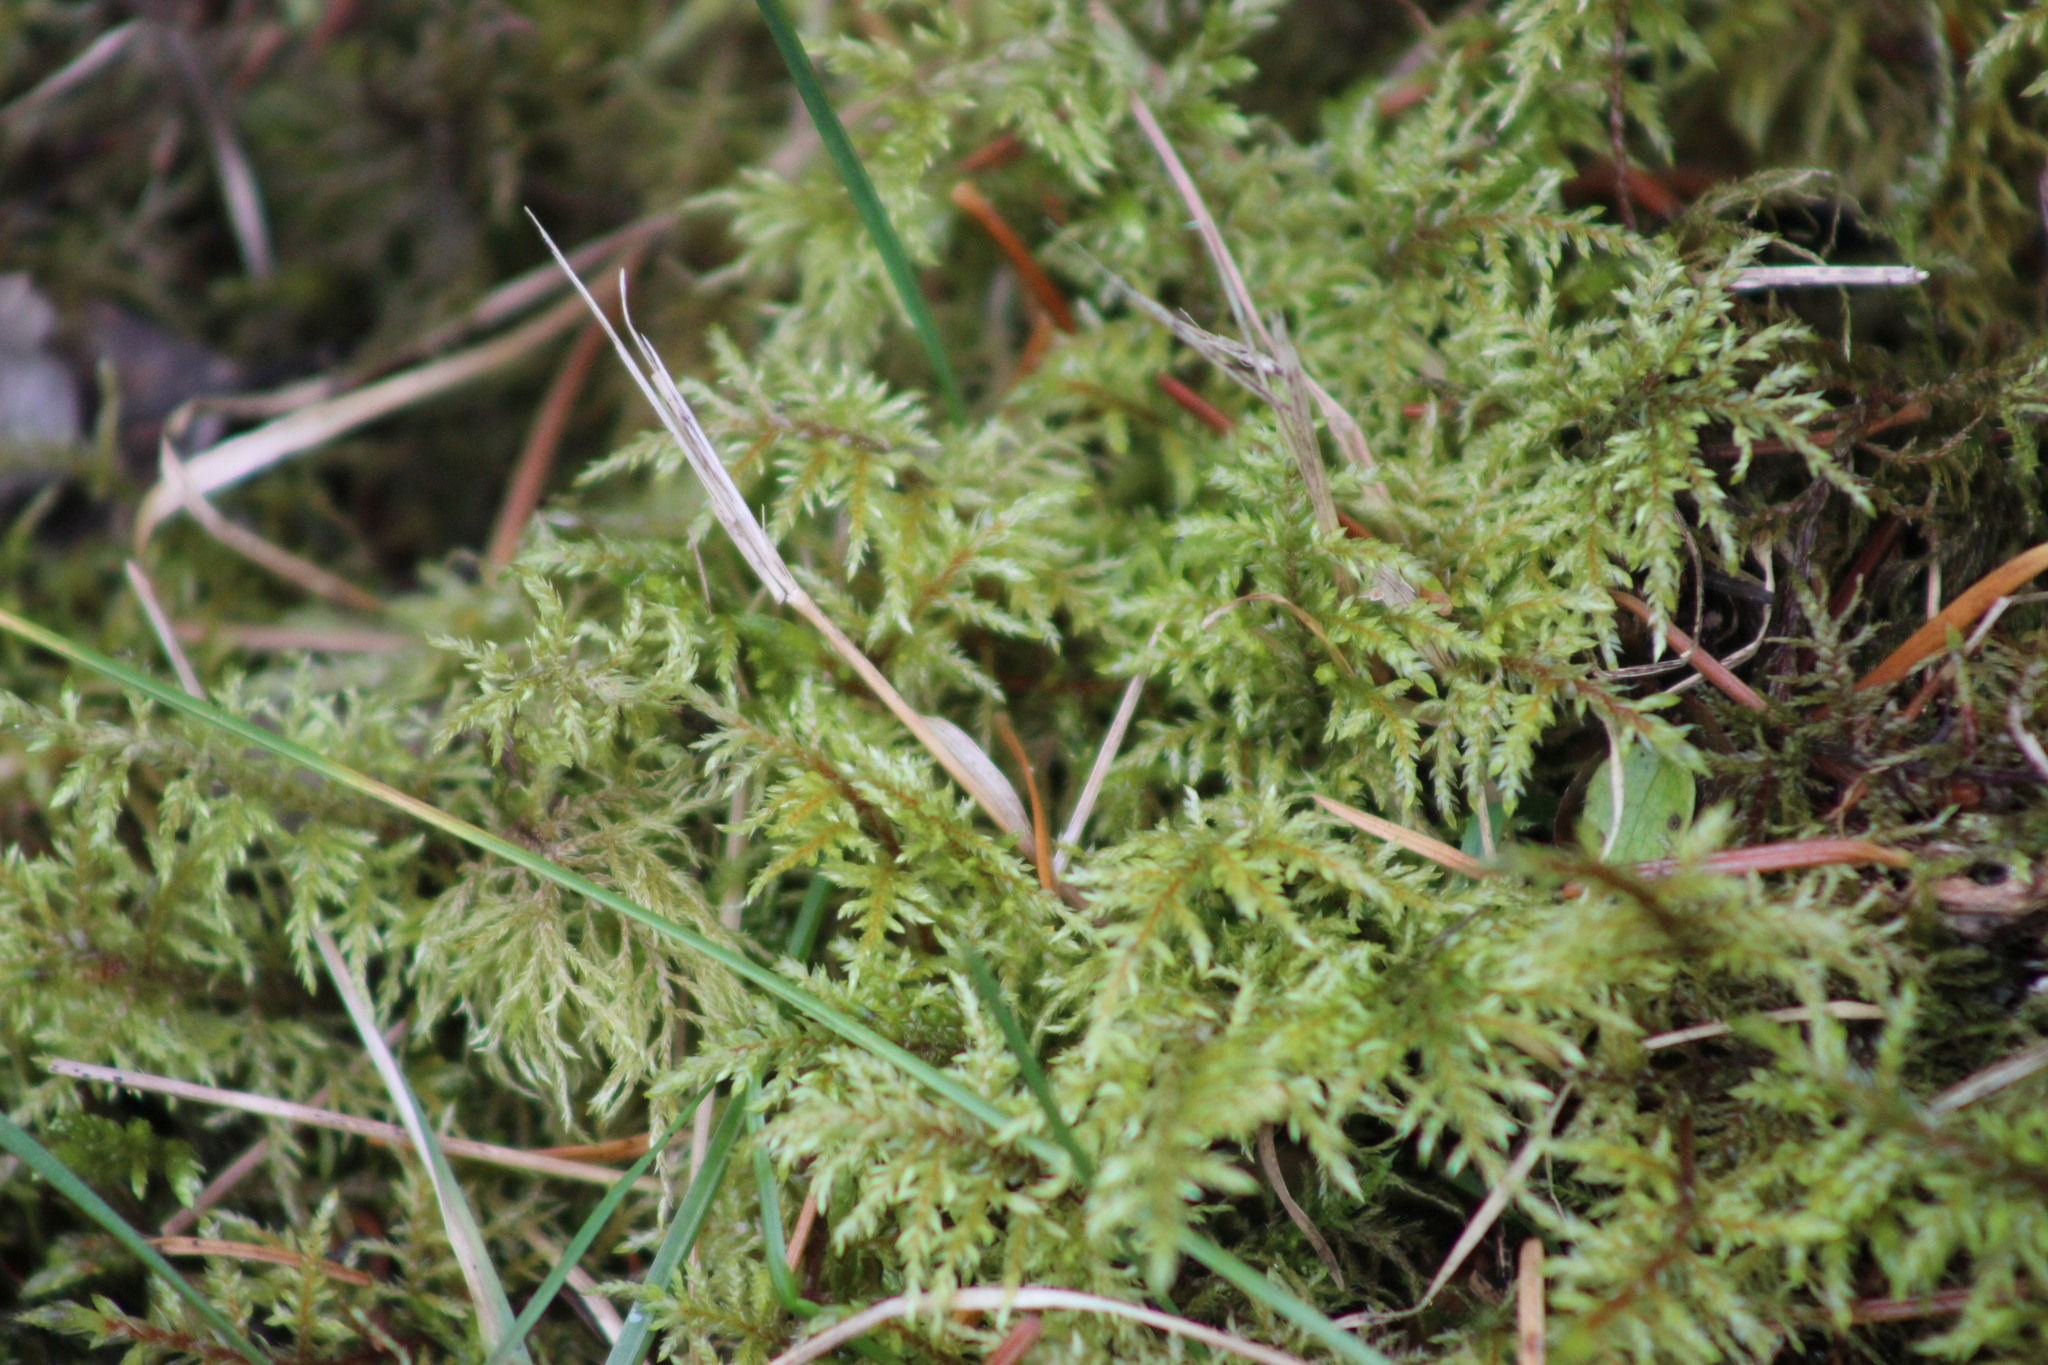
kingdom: Plantae
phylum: Bryophyta
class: Bryopsida
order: Hypnales
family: Hylocomiaceae
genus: Hylocomium
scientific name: Hylocomium splendens
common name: Stairstep moss
